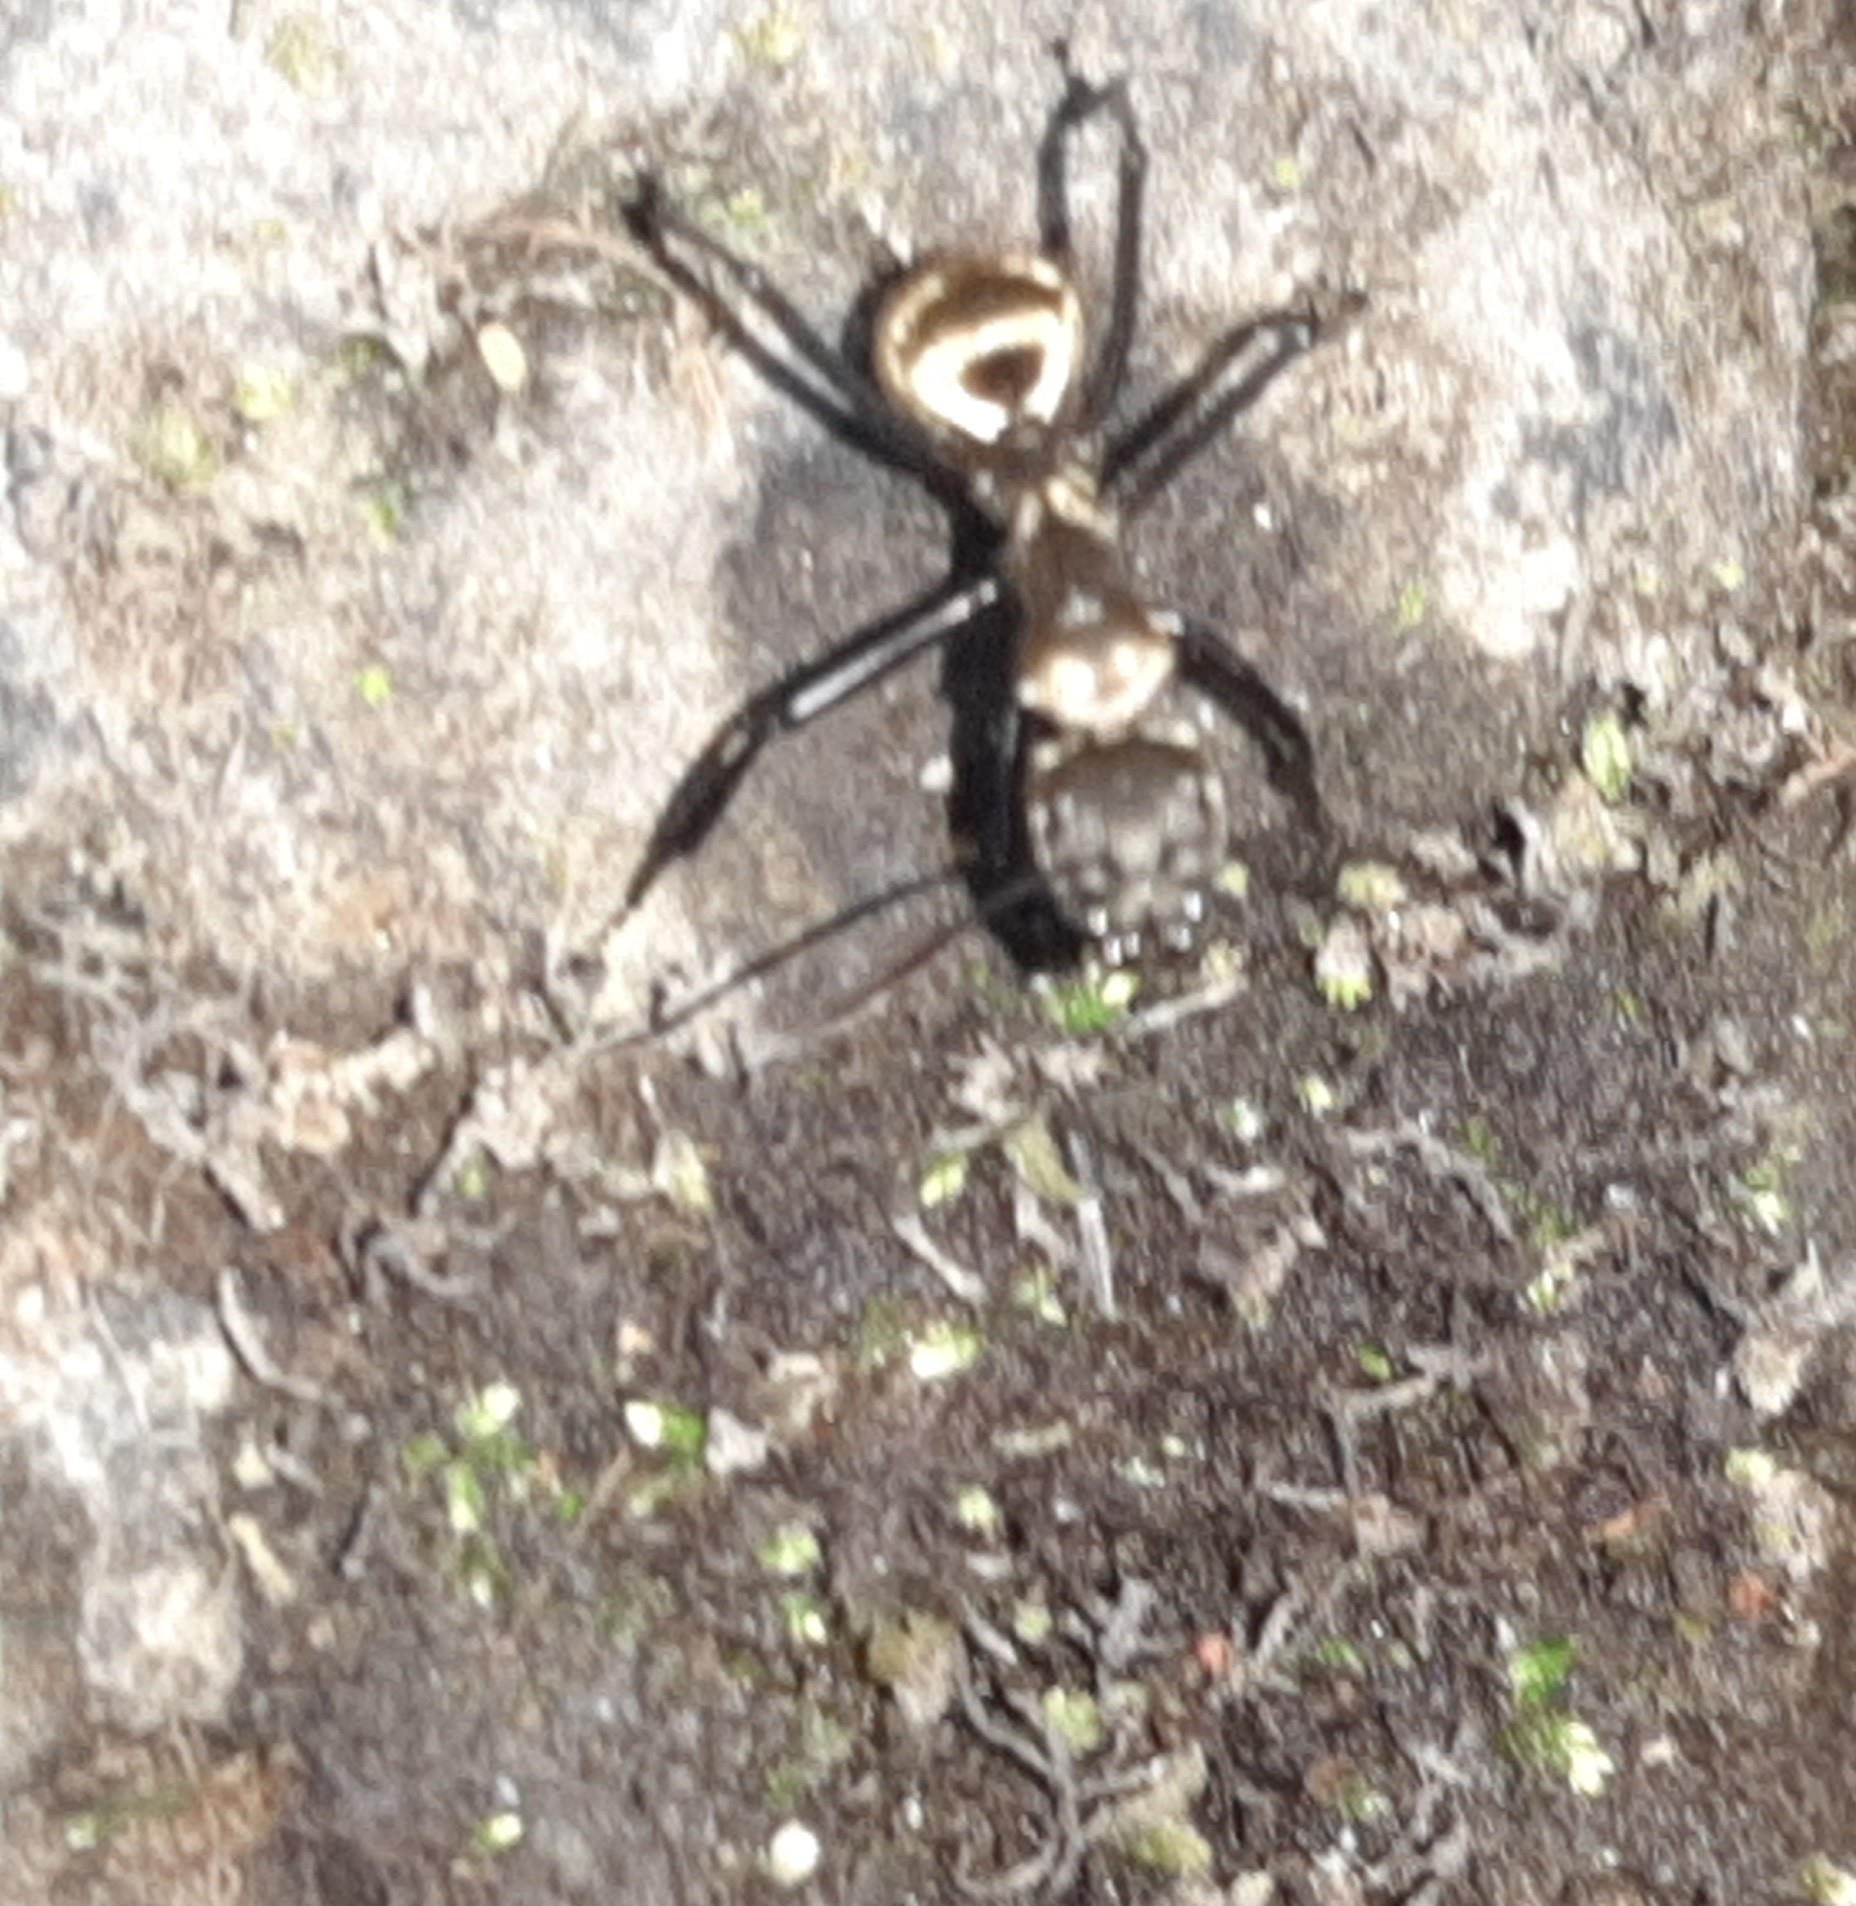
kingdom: Animalia
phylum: Arthropoda
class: Insecta
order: Hymenoptera
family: Formicidae
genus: Camponotus
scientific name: Camponotus sericeiventris
